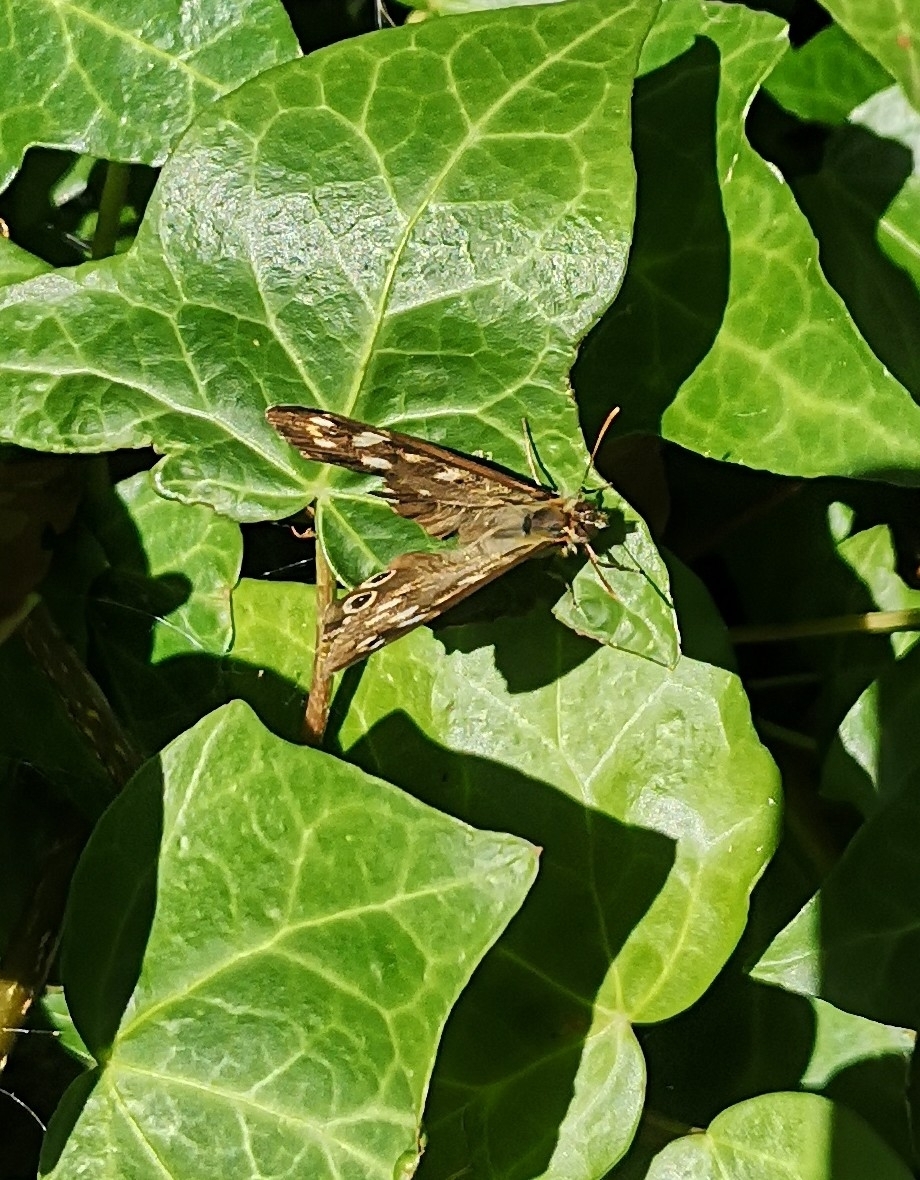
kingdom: Animalia
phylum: Arthropoda
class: Insecta
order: Lepidoptera
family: Nymphalidae
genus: Pararge
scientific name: Pararge aegeria
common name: Speckled wood
